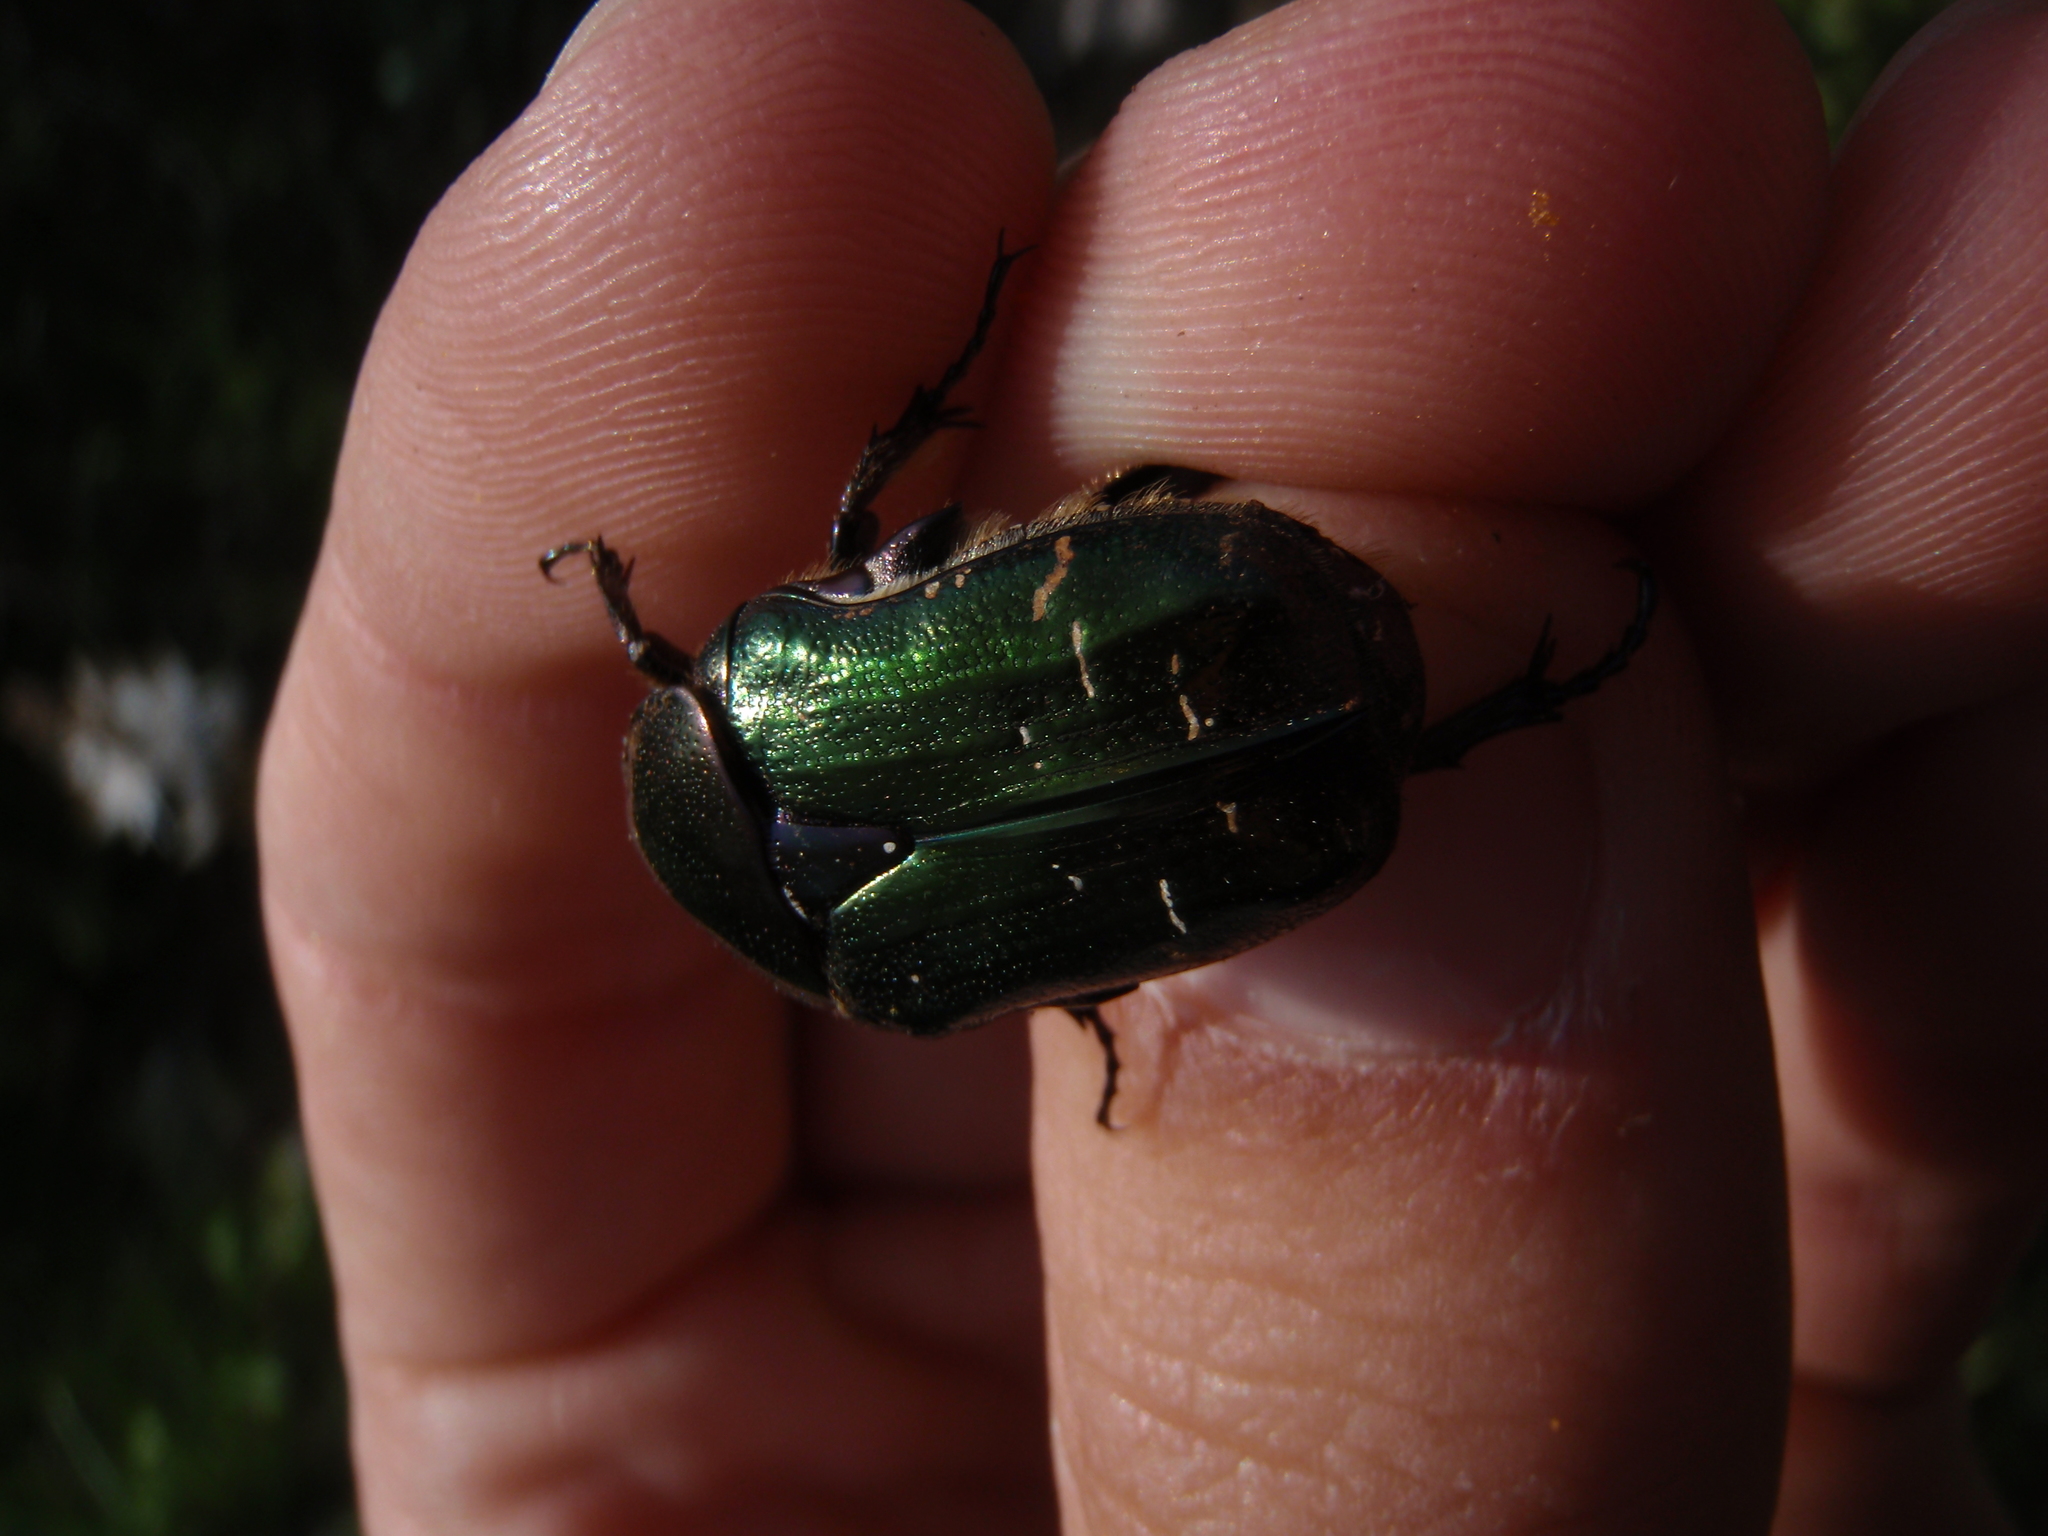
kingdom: Animalia
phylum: Arthropoda
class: Insecta
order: Coleoptera
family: Scarabaeidae
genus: Cetonia
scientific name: Cetonia aurata
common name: Rose chafer
